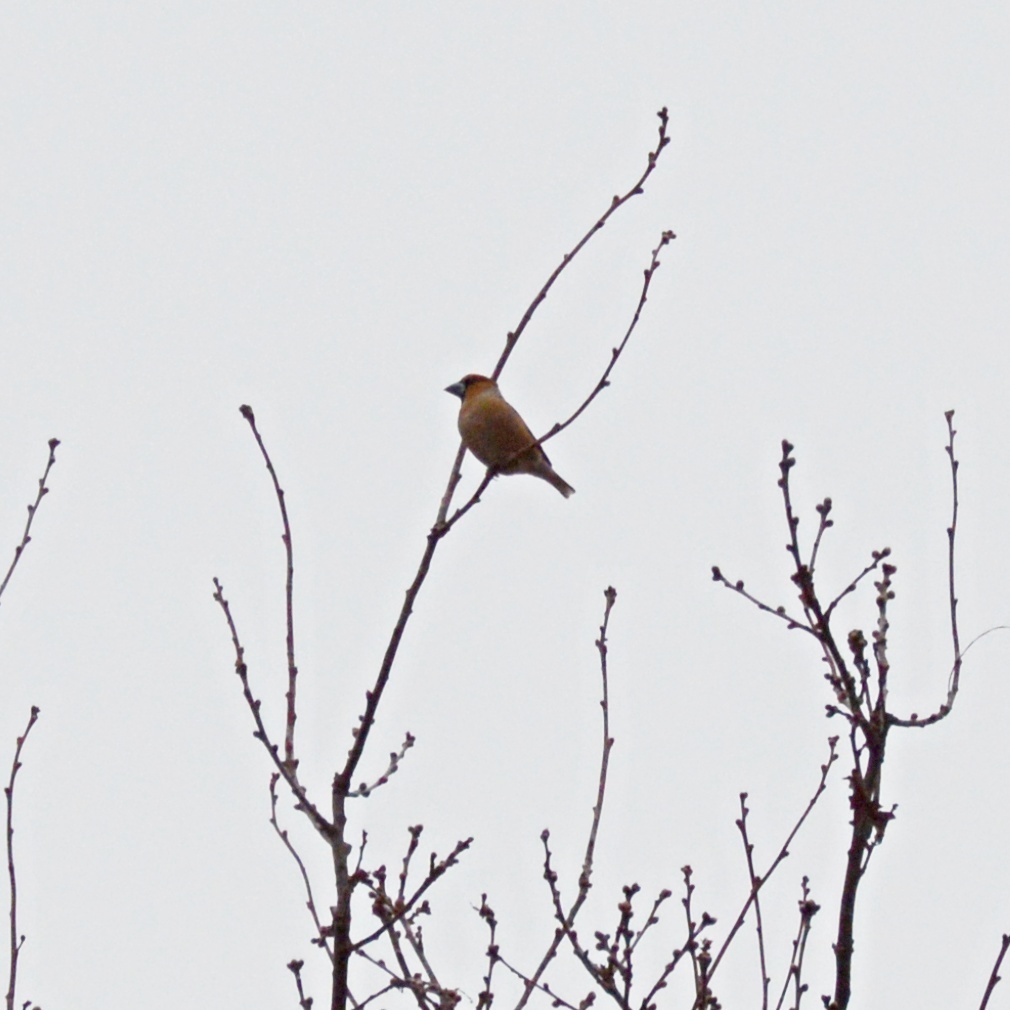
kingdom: Animalia
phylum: Chordata
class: Aves
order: Passeriformes
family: Fringillidae
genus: Coccothraustes
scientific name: Coccothraustes coccothraustes
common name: Hawfinch
